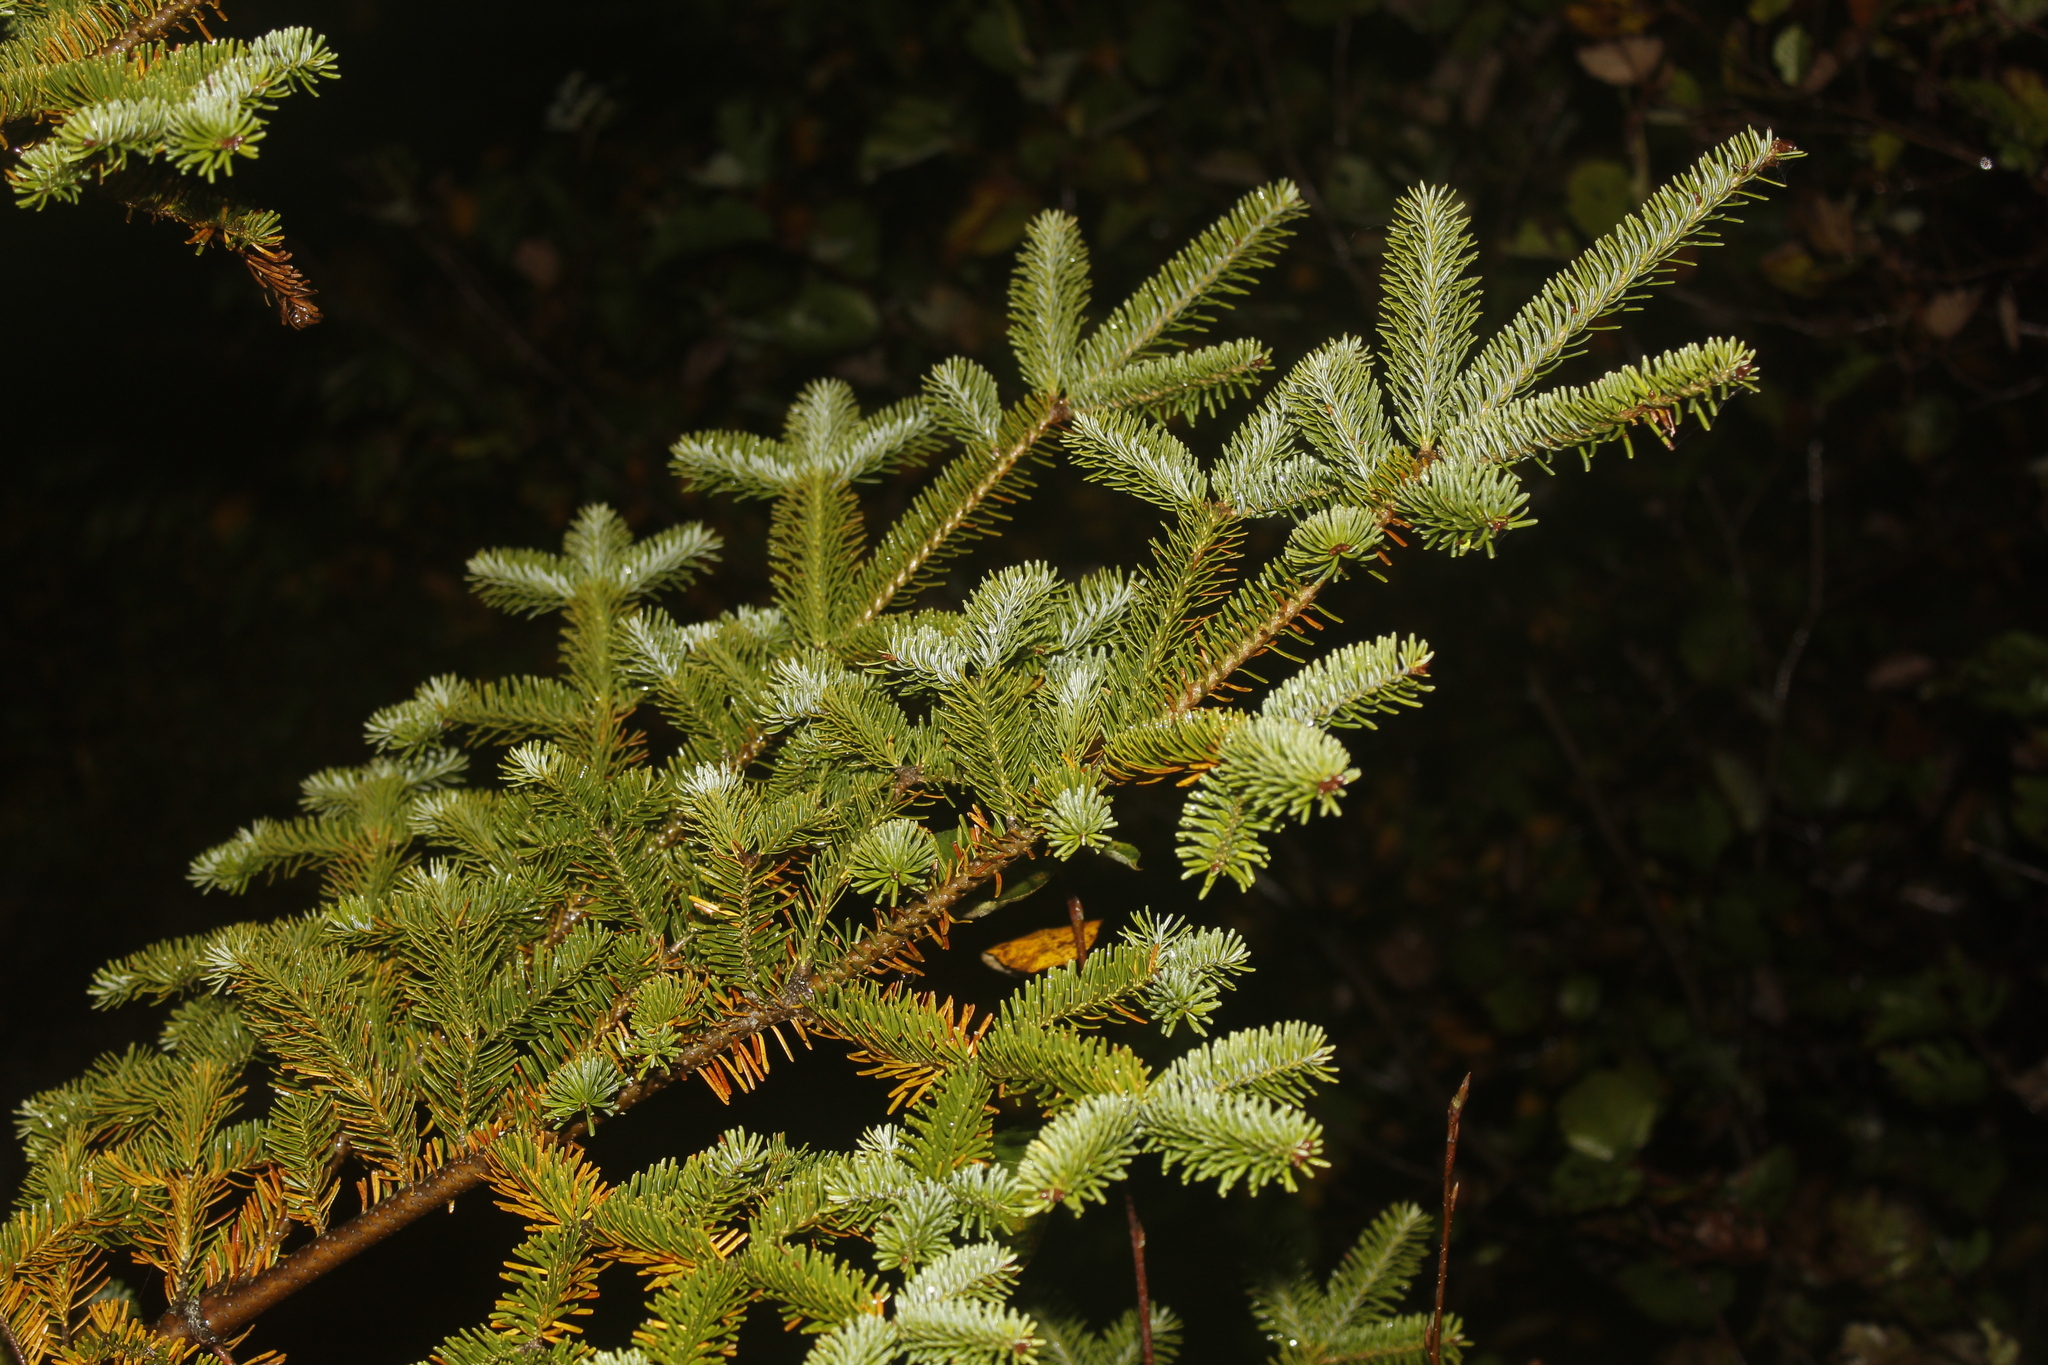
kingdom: Plantae
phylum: Tracheophyta
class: Pinopsida
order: Pinales
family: Pinaceae
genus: Abies
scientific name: Abies balsamea
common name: Balsam fir
